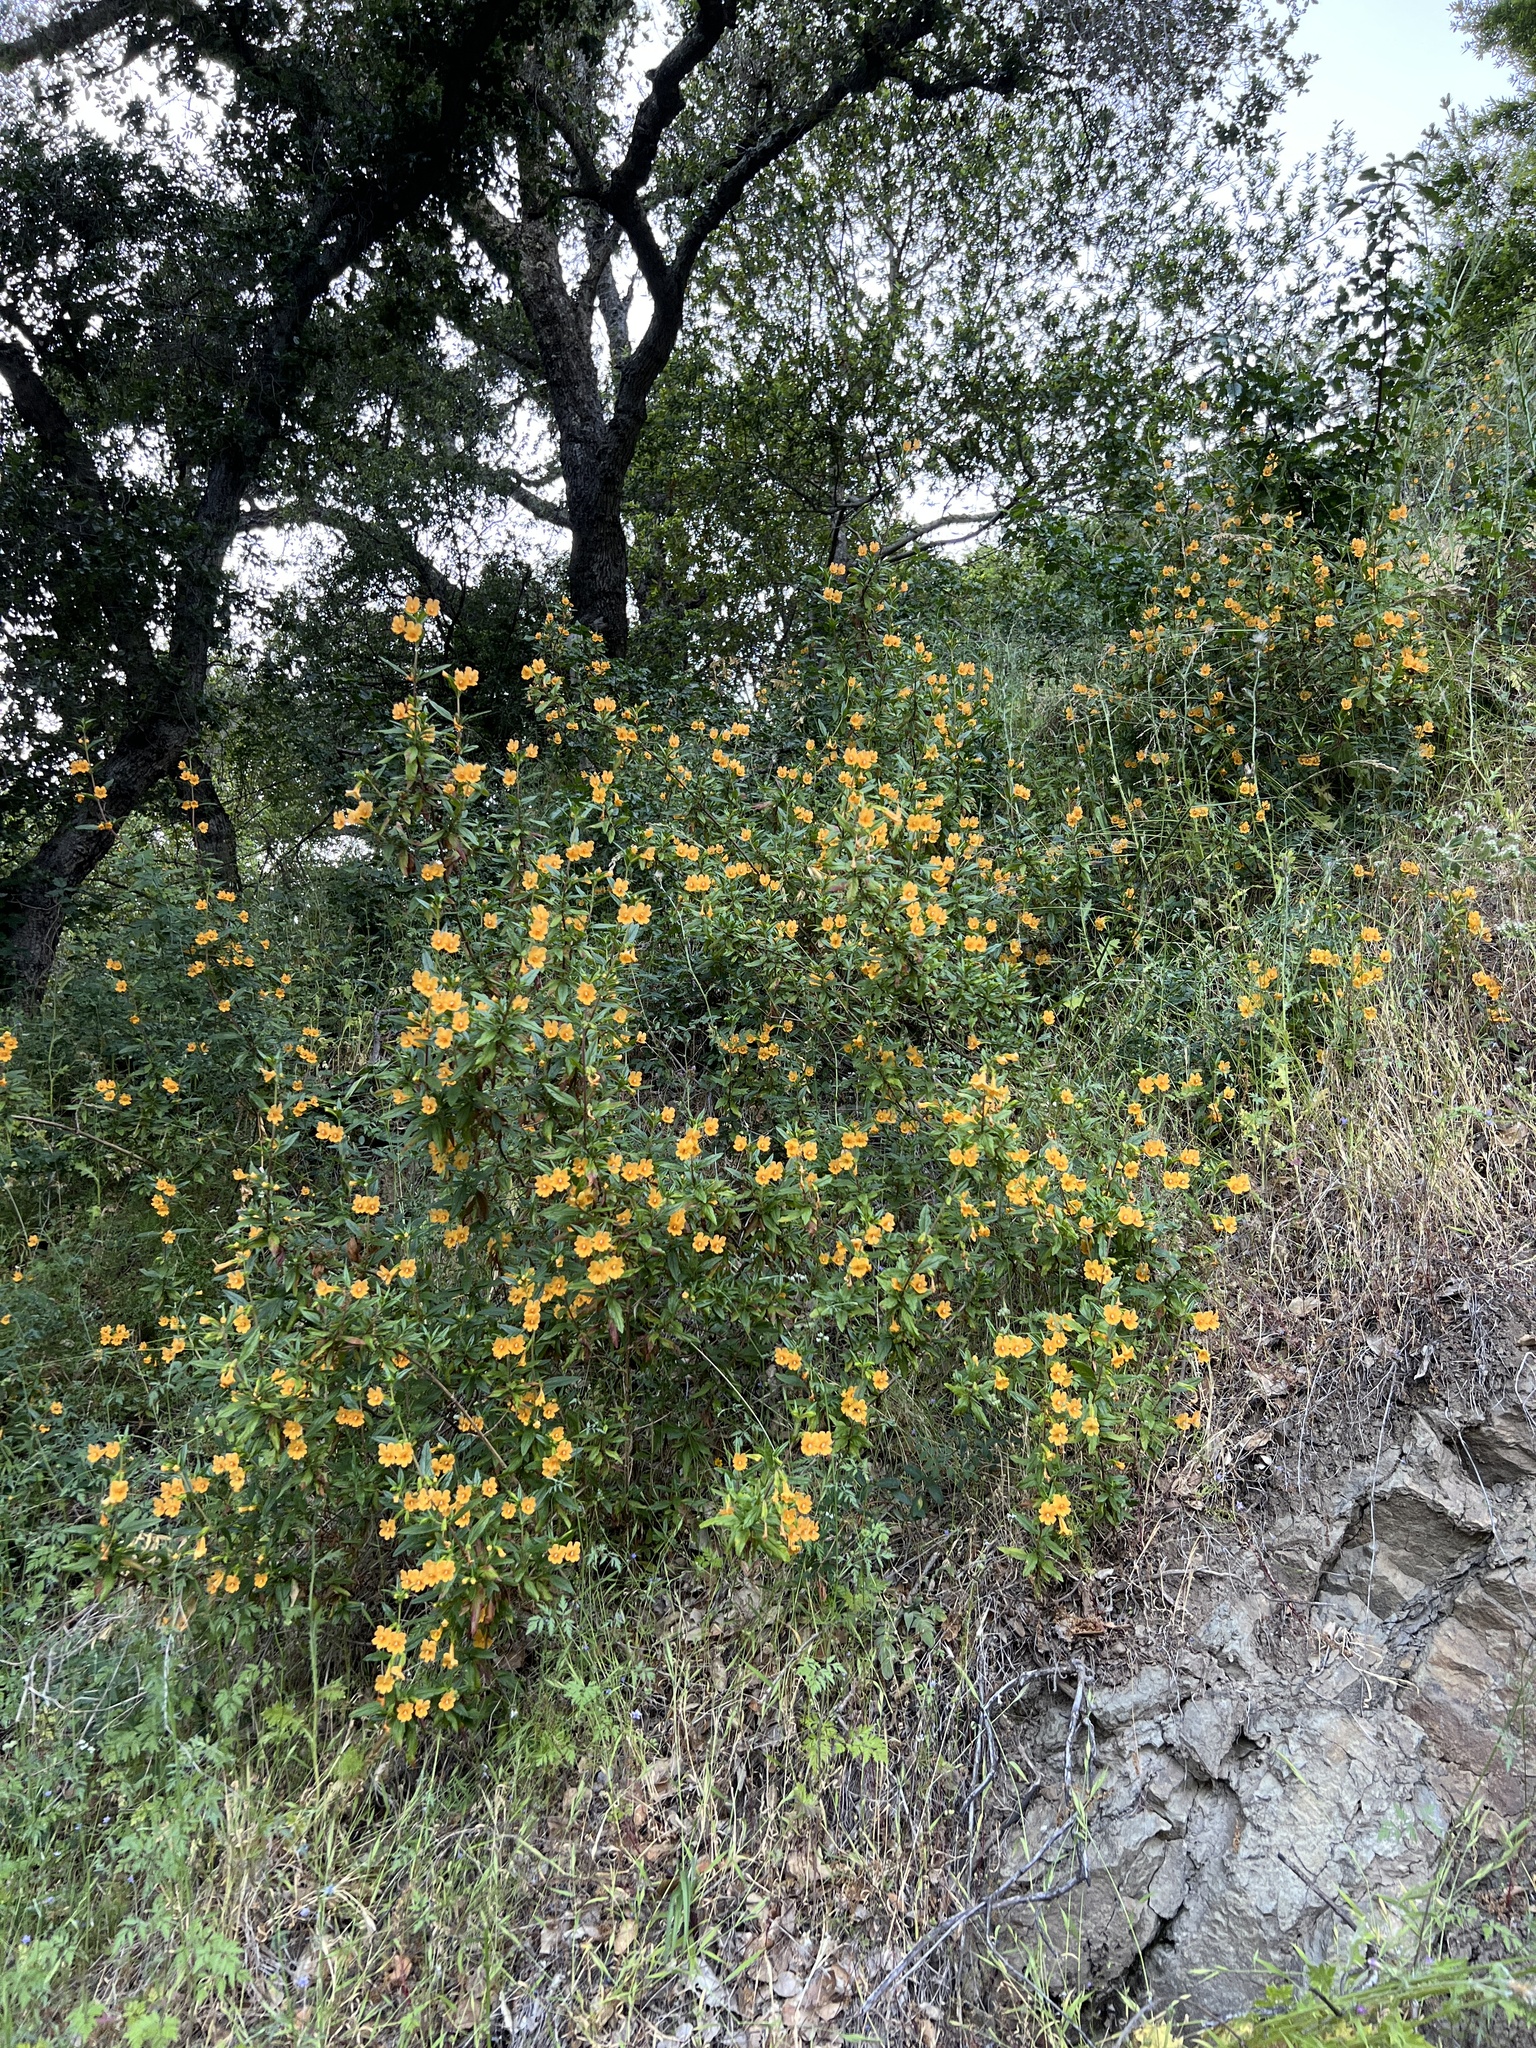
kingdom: Plantae
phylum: Tracheophyta
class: Magnoliopsida
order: Lamiales
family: Phrymaceae
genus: Diplacus
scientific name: Diplacus aurantiacus
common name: Bush monkey-flower
